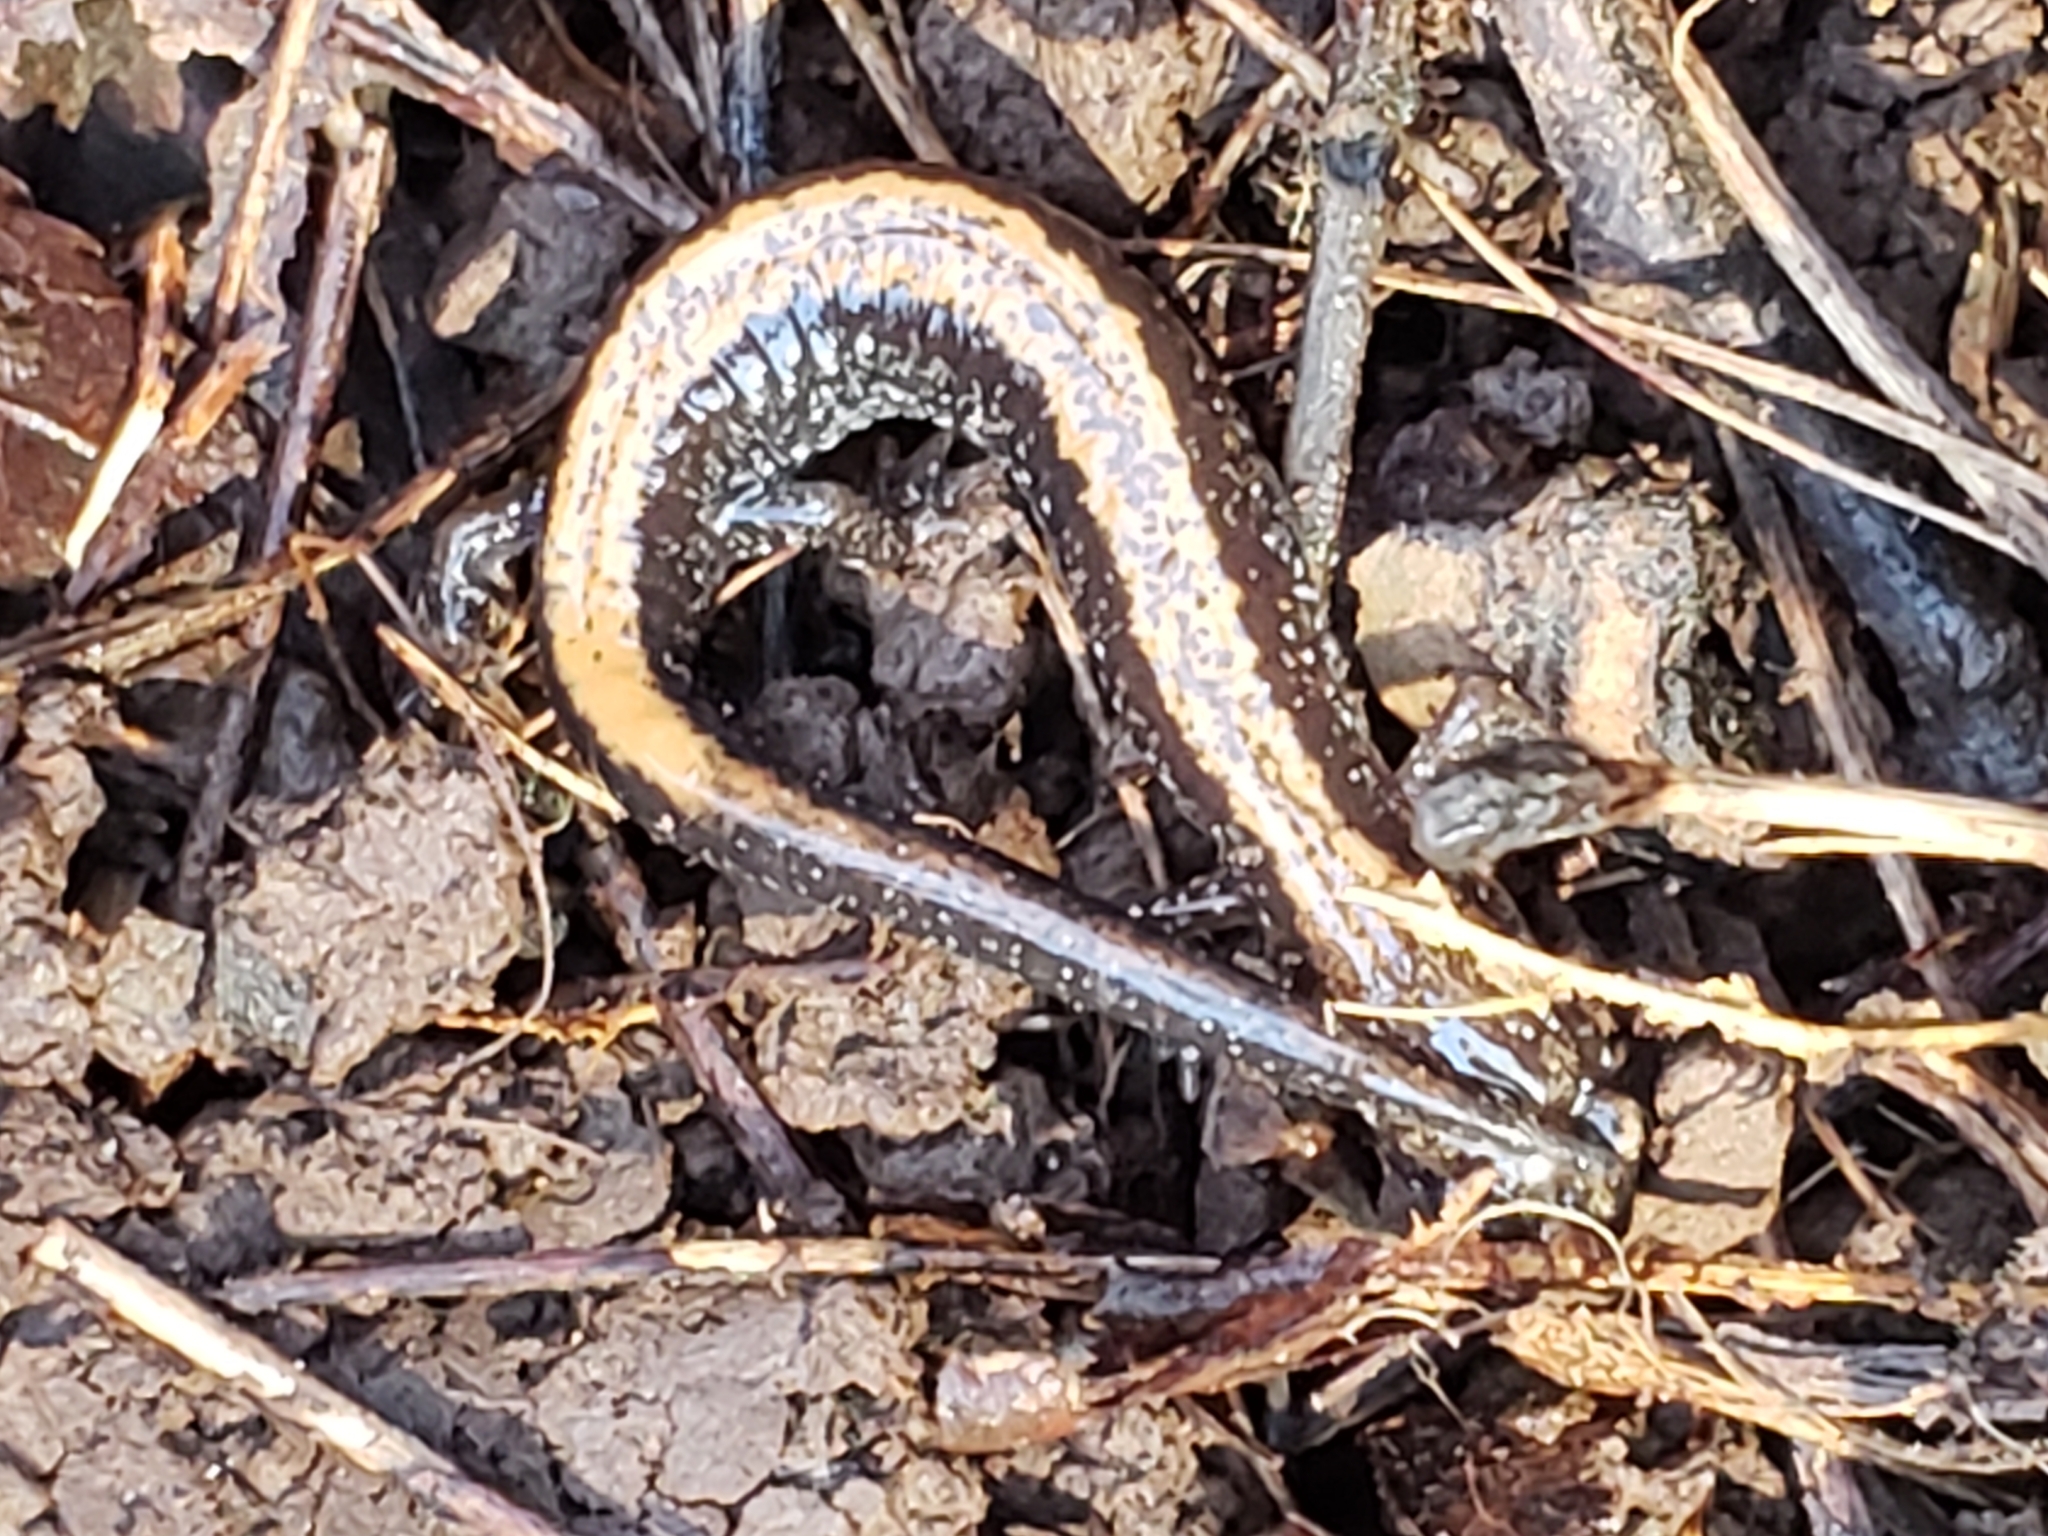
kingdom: Animalia
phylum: Chordata
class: Amphibia
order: Caudata
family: Plethodontidae
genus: Plethodon
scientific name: Plethodon cinereus
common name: Redback salamander
